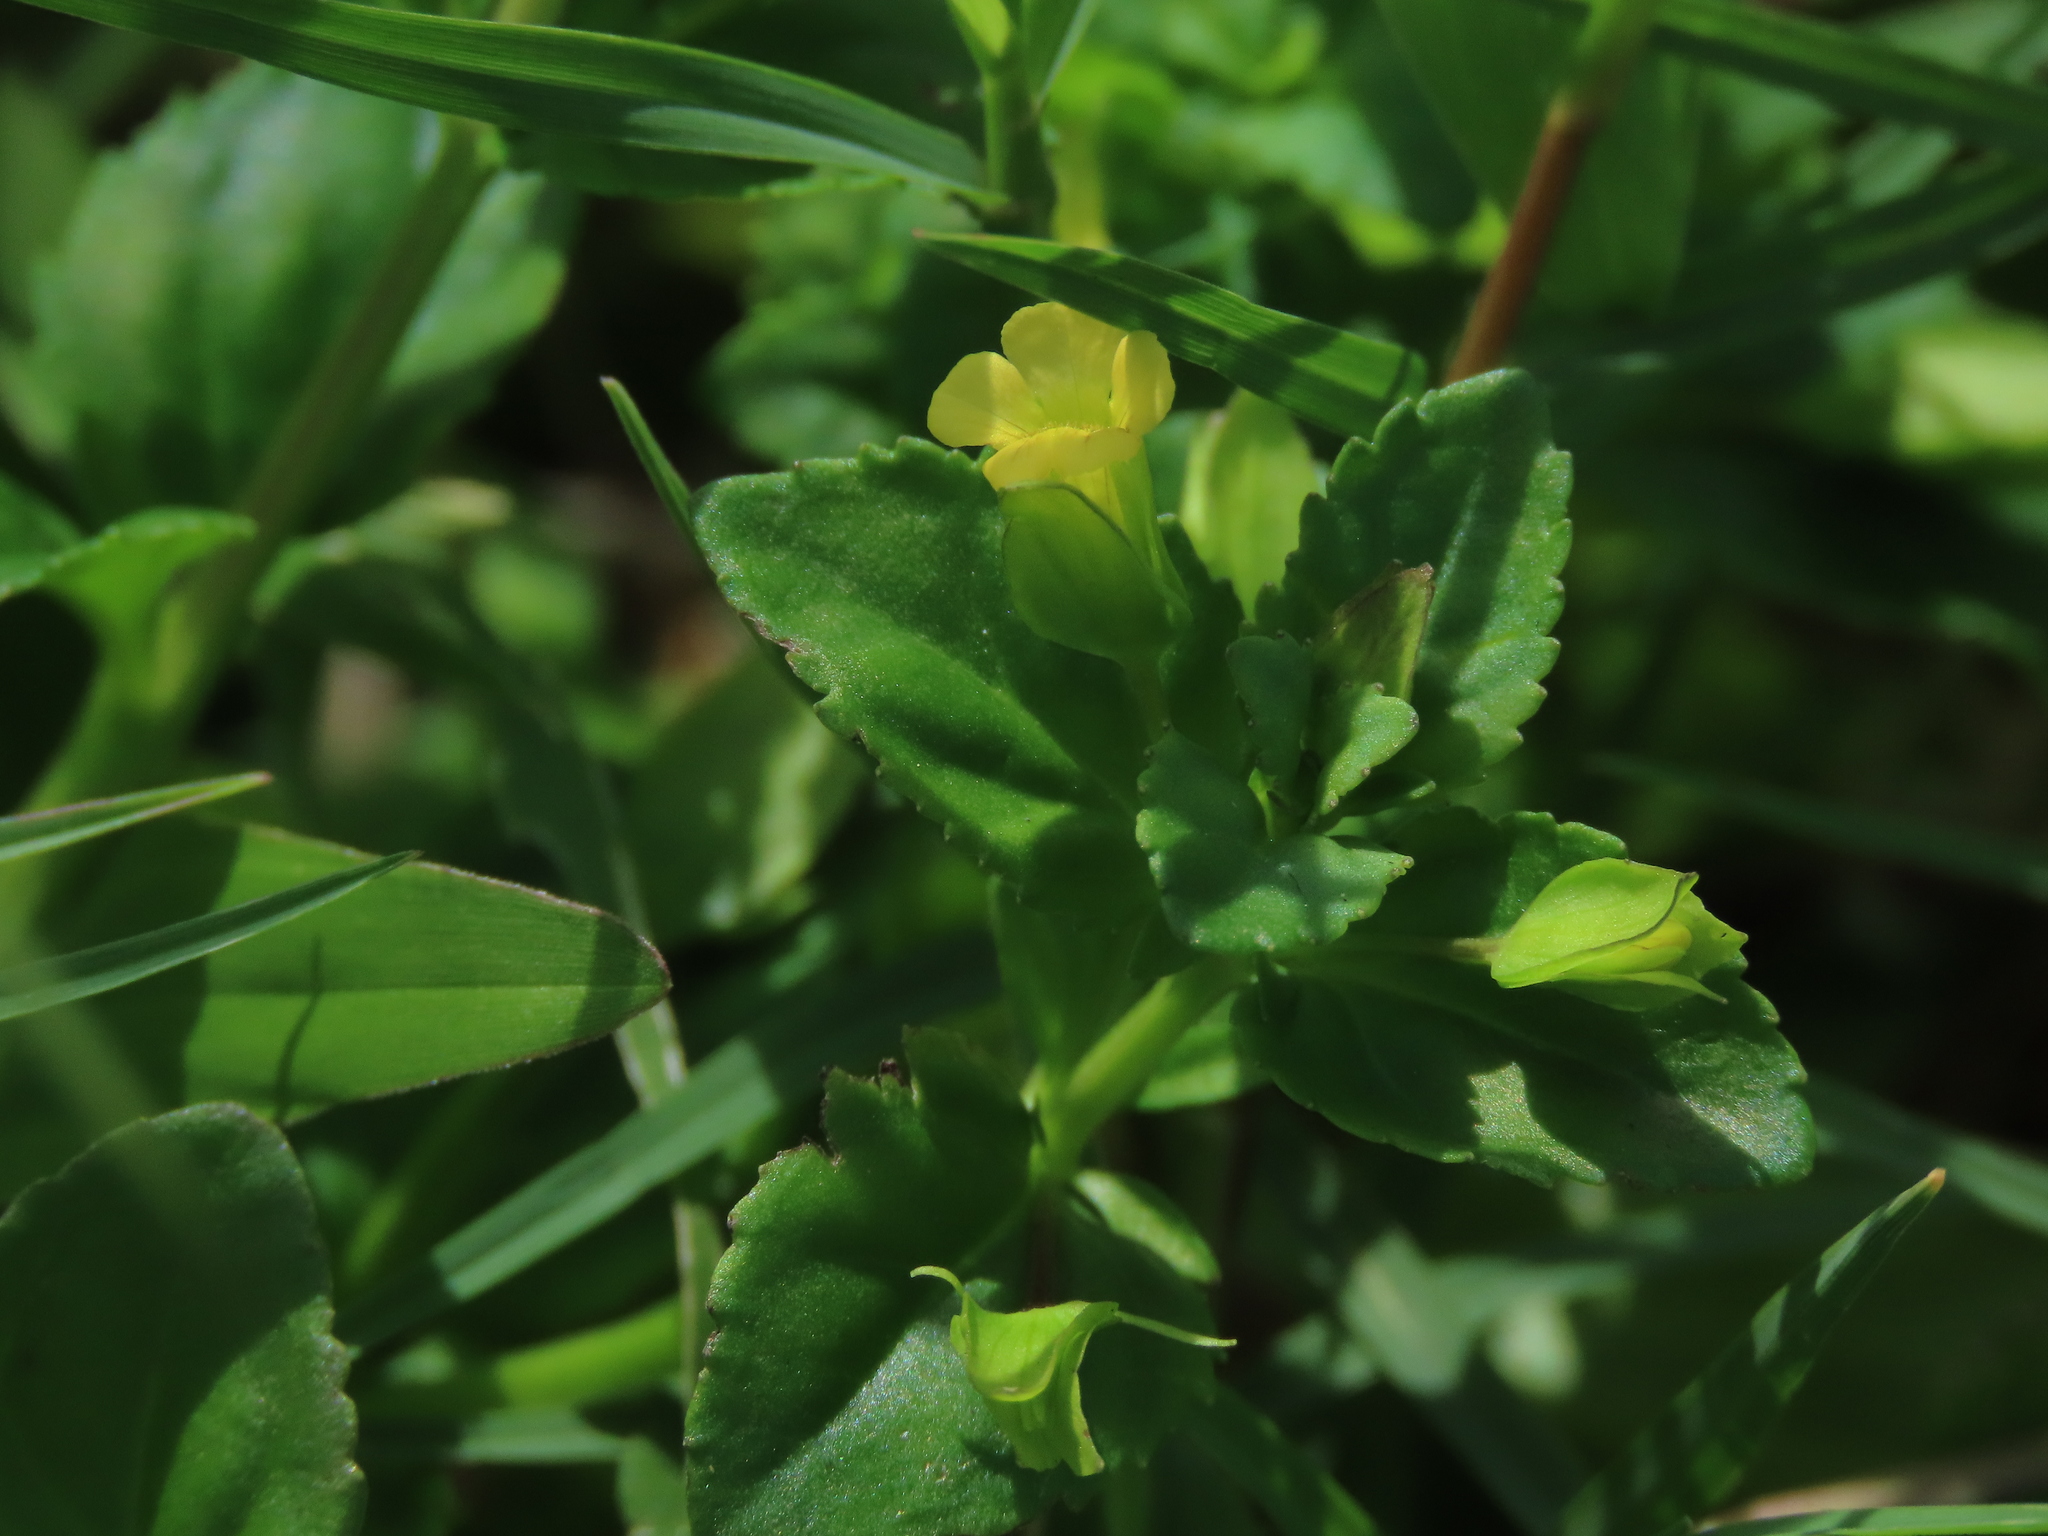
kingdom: Plantae
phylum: Tracheophyta
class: Magnoliopsida
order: Lamiales
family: Plantaginaceae
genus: Mecardonia
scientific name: Mecardonia procumbens
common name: Baby jump-up
